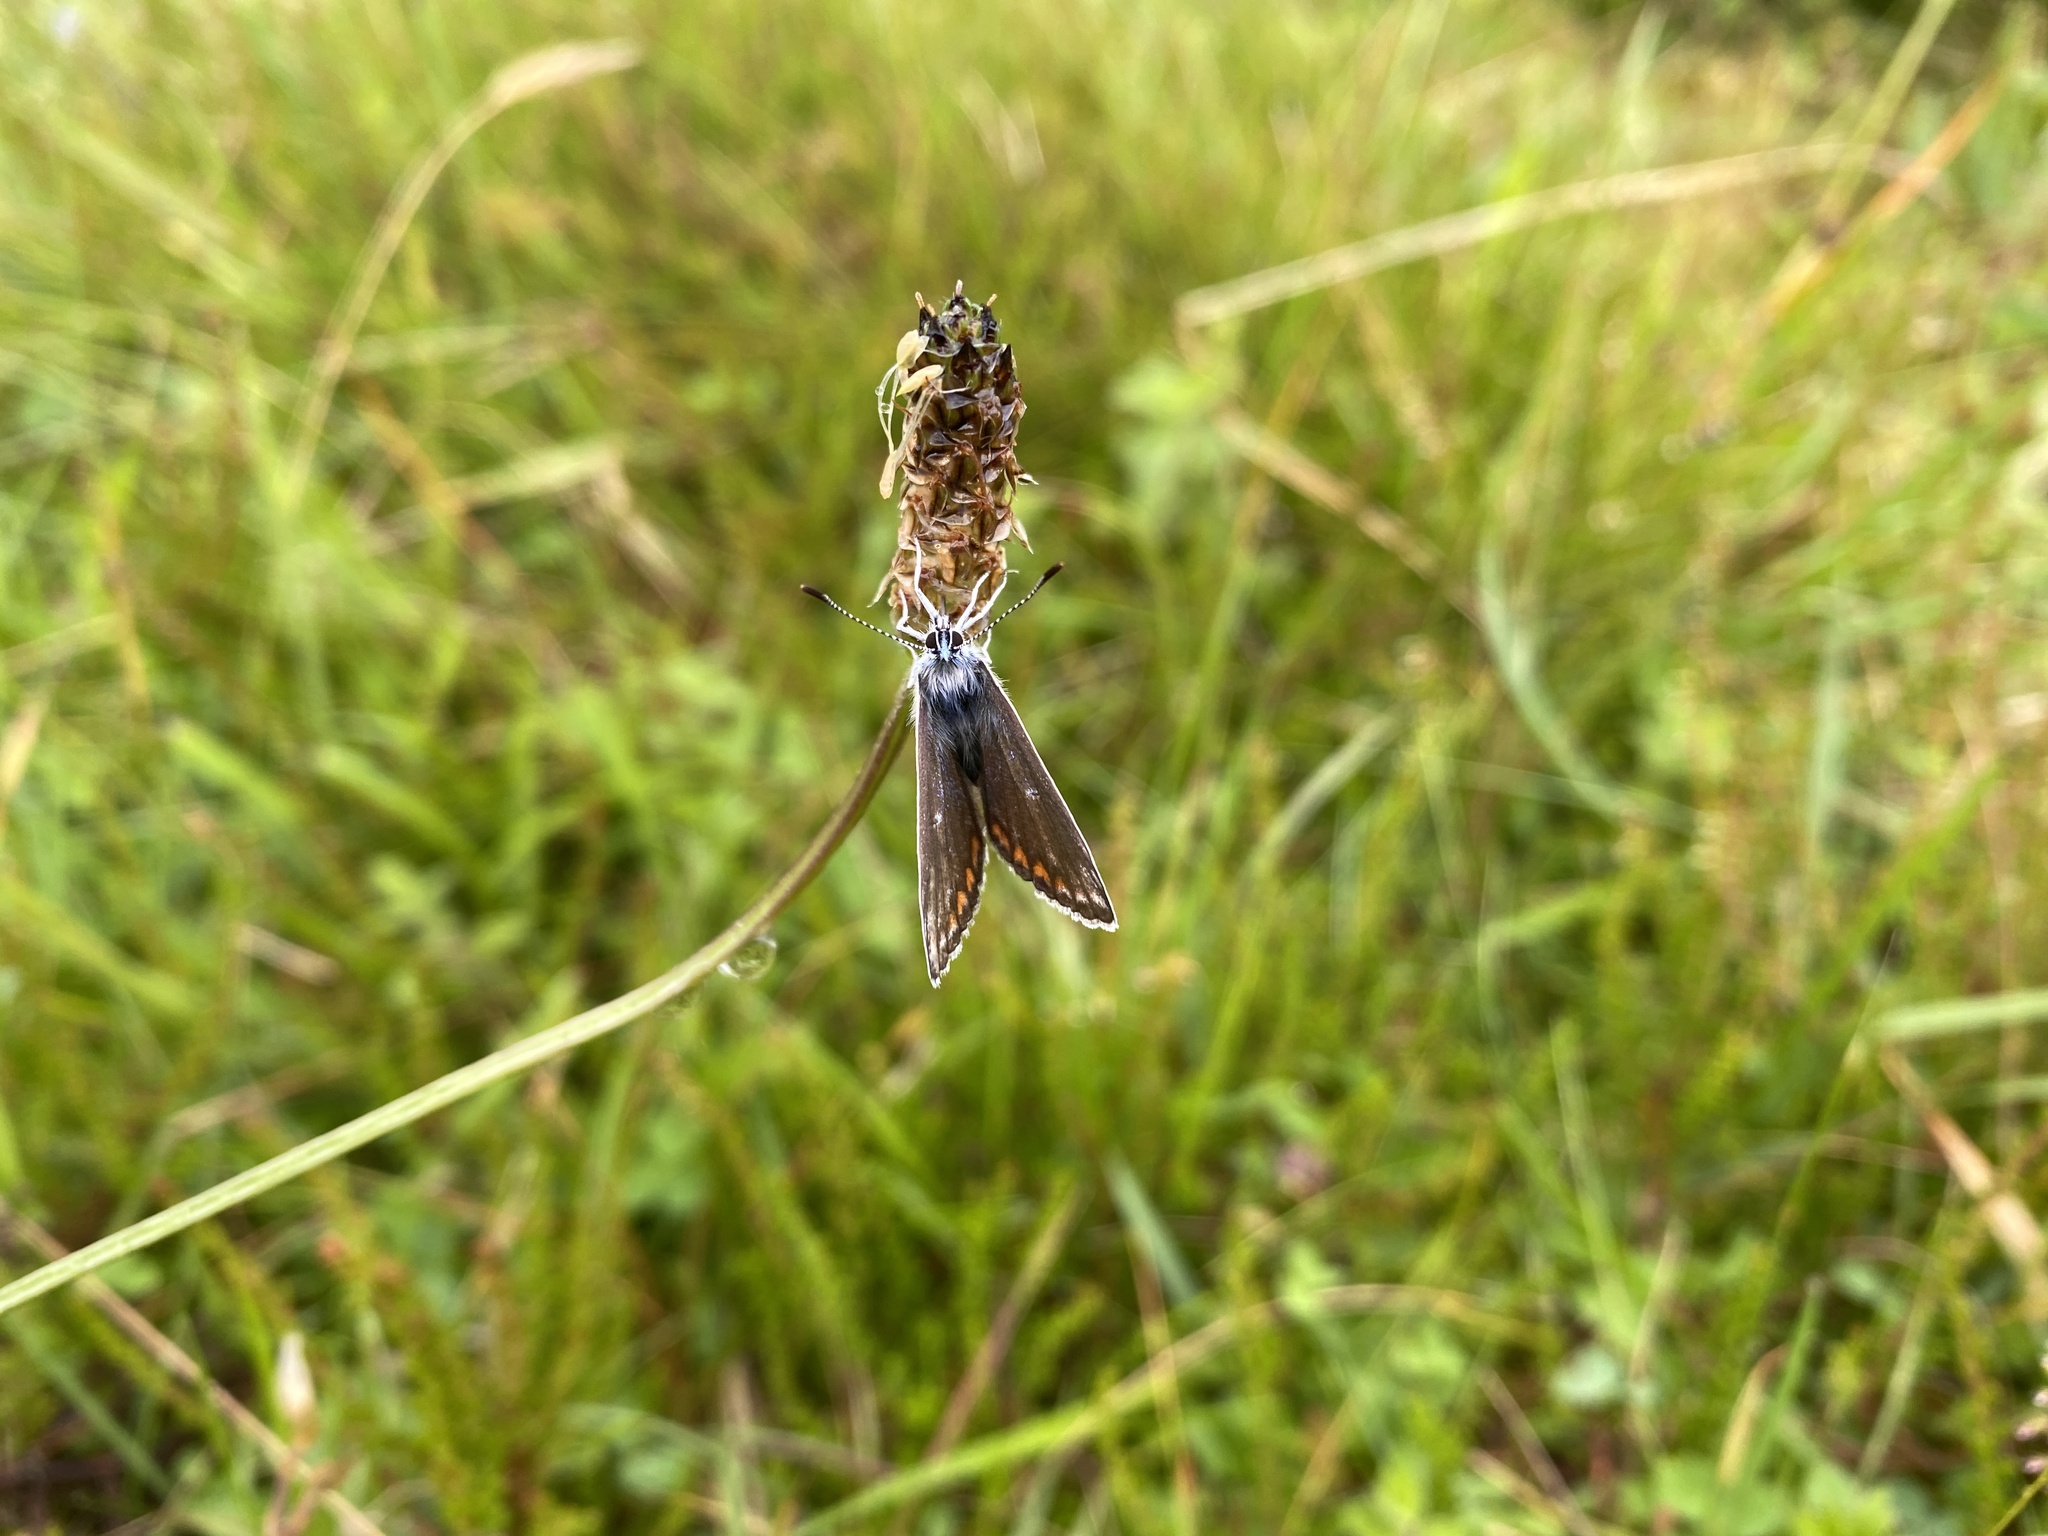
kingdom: Animalia
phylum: Arthropoda
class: Insecta
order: Lepidoptera
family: Lycaenidae
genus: Aricia
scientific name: Aricia artaxerxes
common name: Northern brown argus
